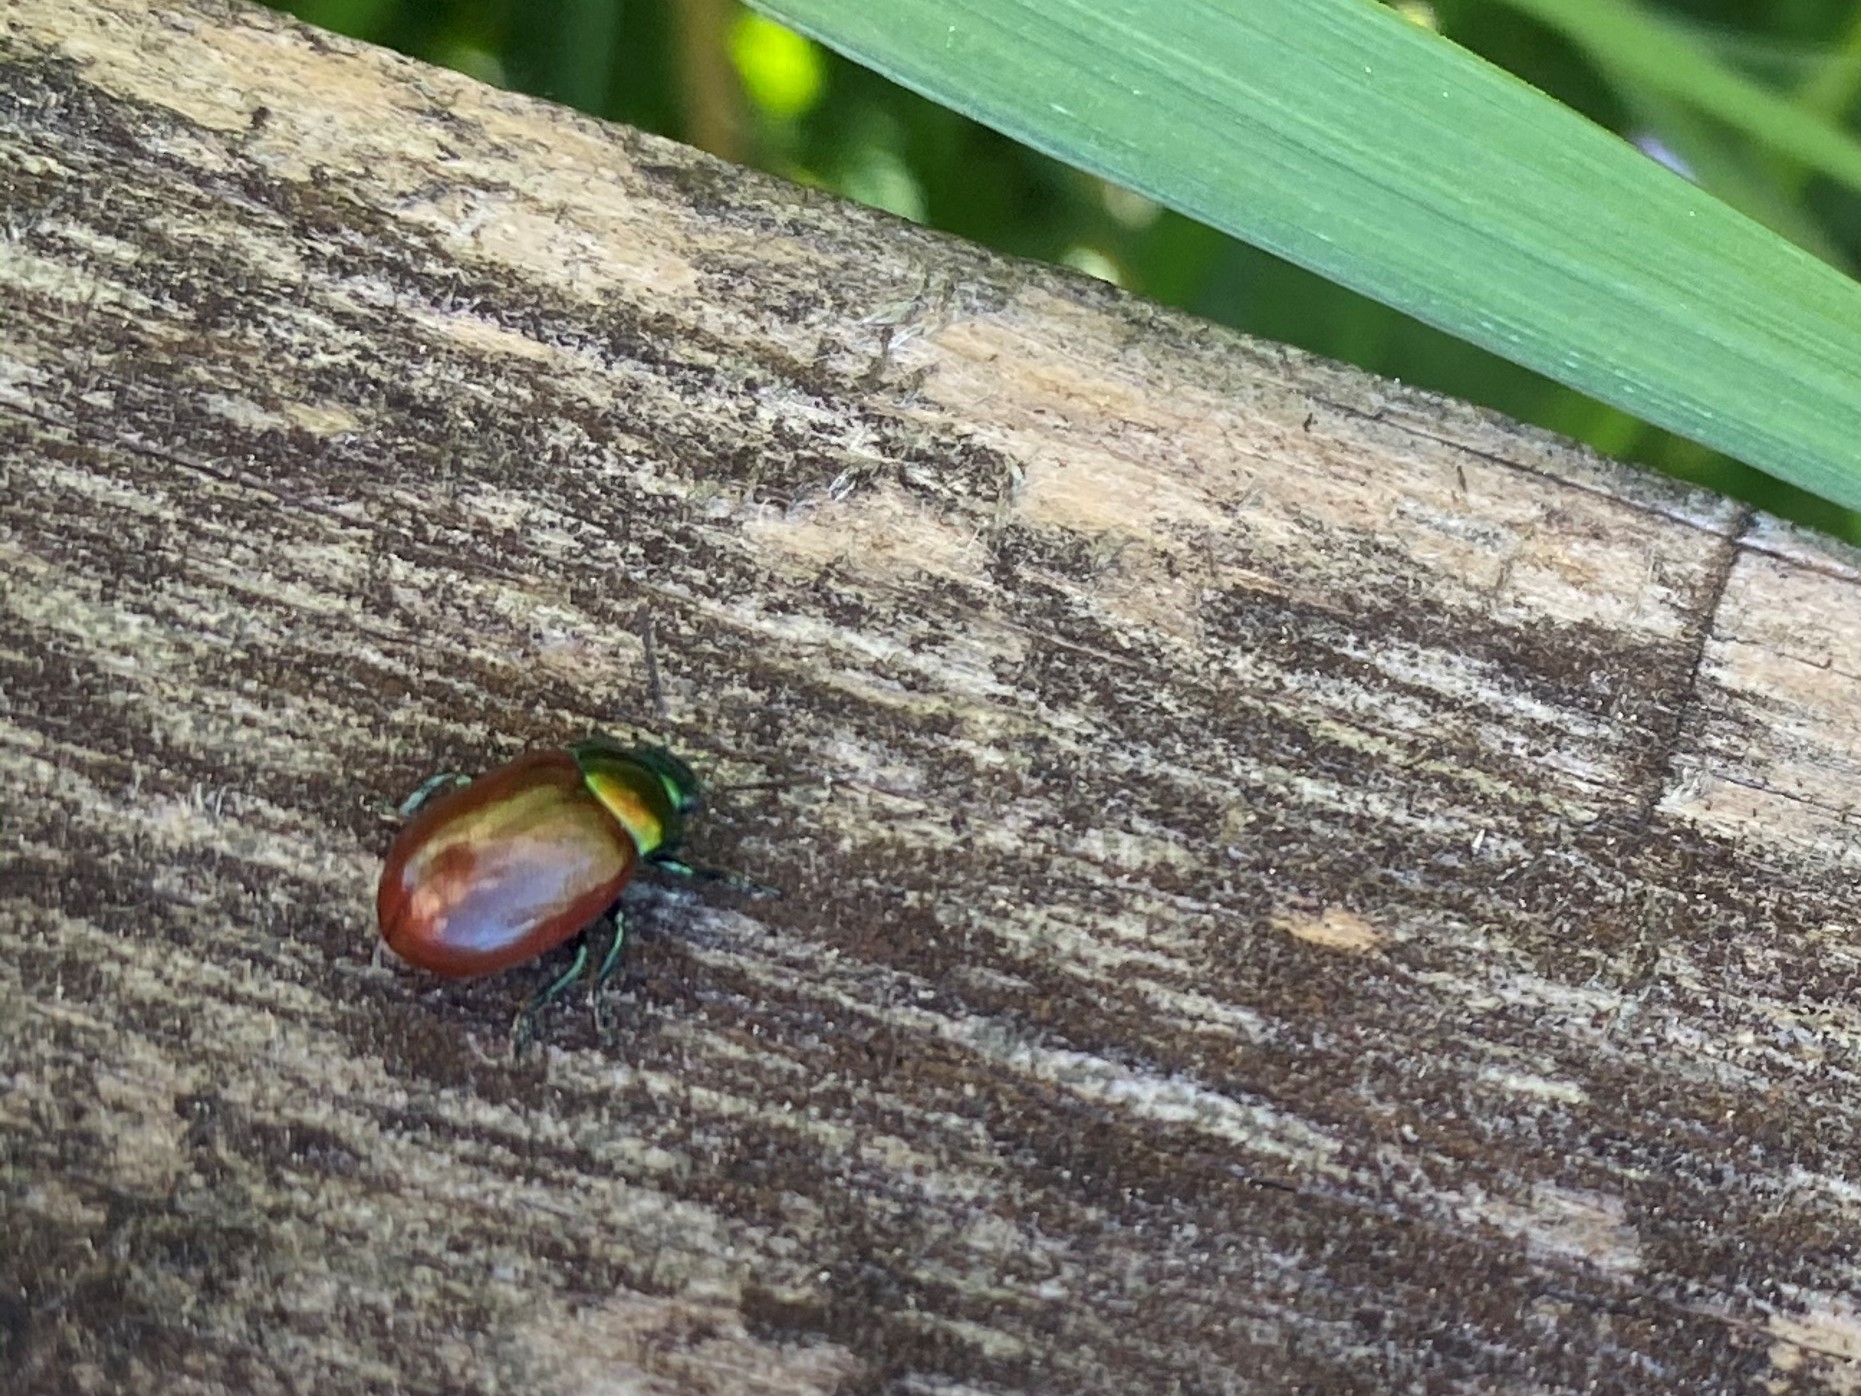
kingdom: Animalia
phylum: Arthropoda
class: Insecta
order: Coleoptera
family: Chrysomelidae
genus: Chrysomela
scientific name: Chrysomela polita
